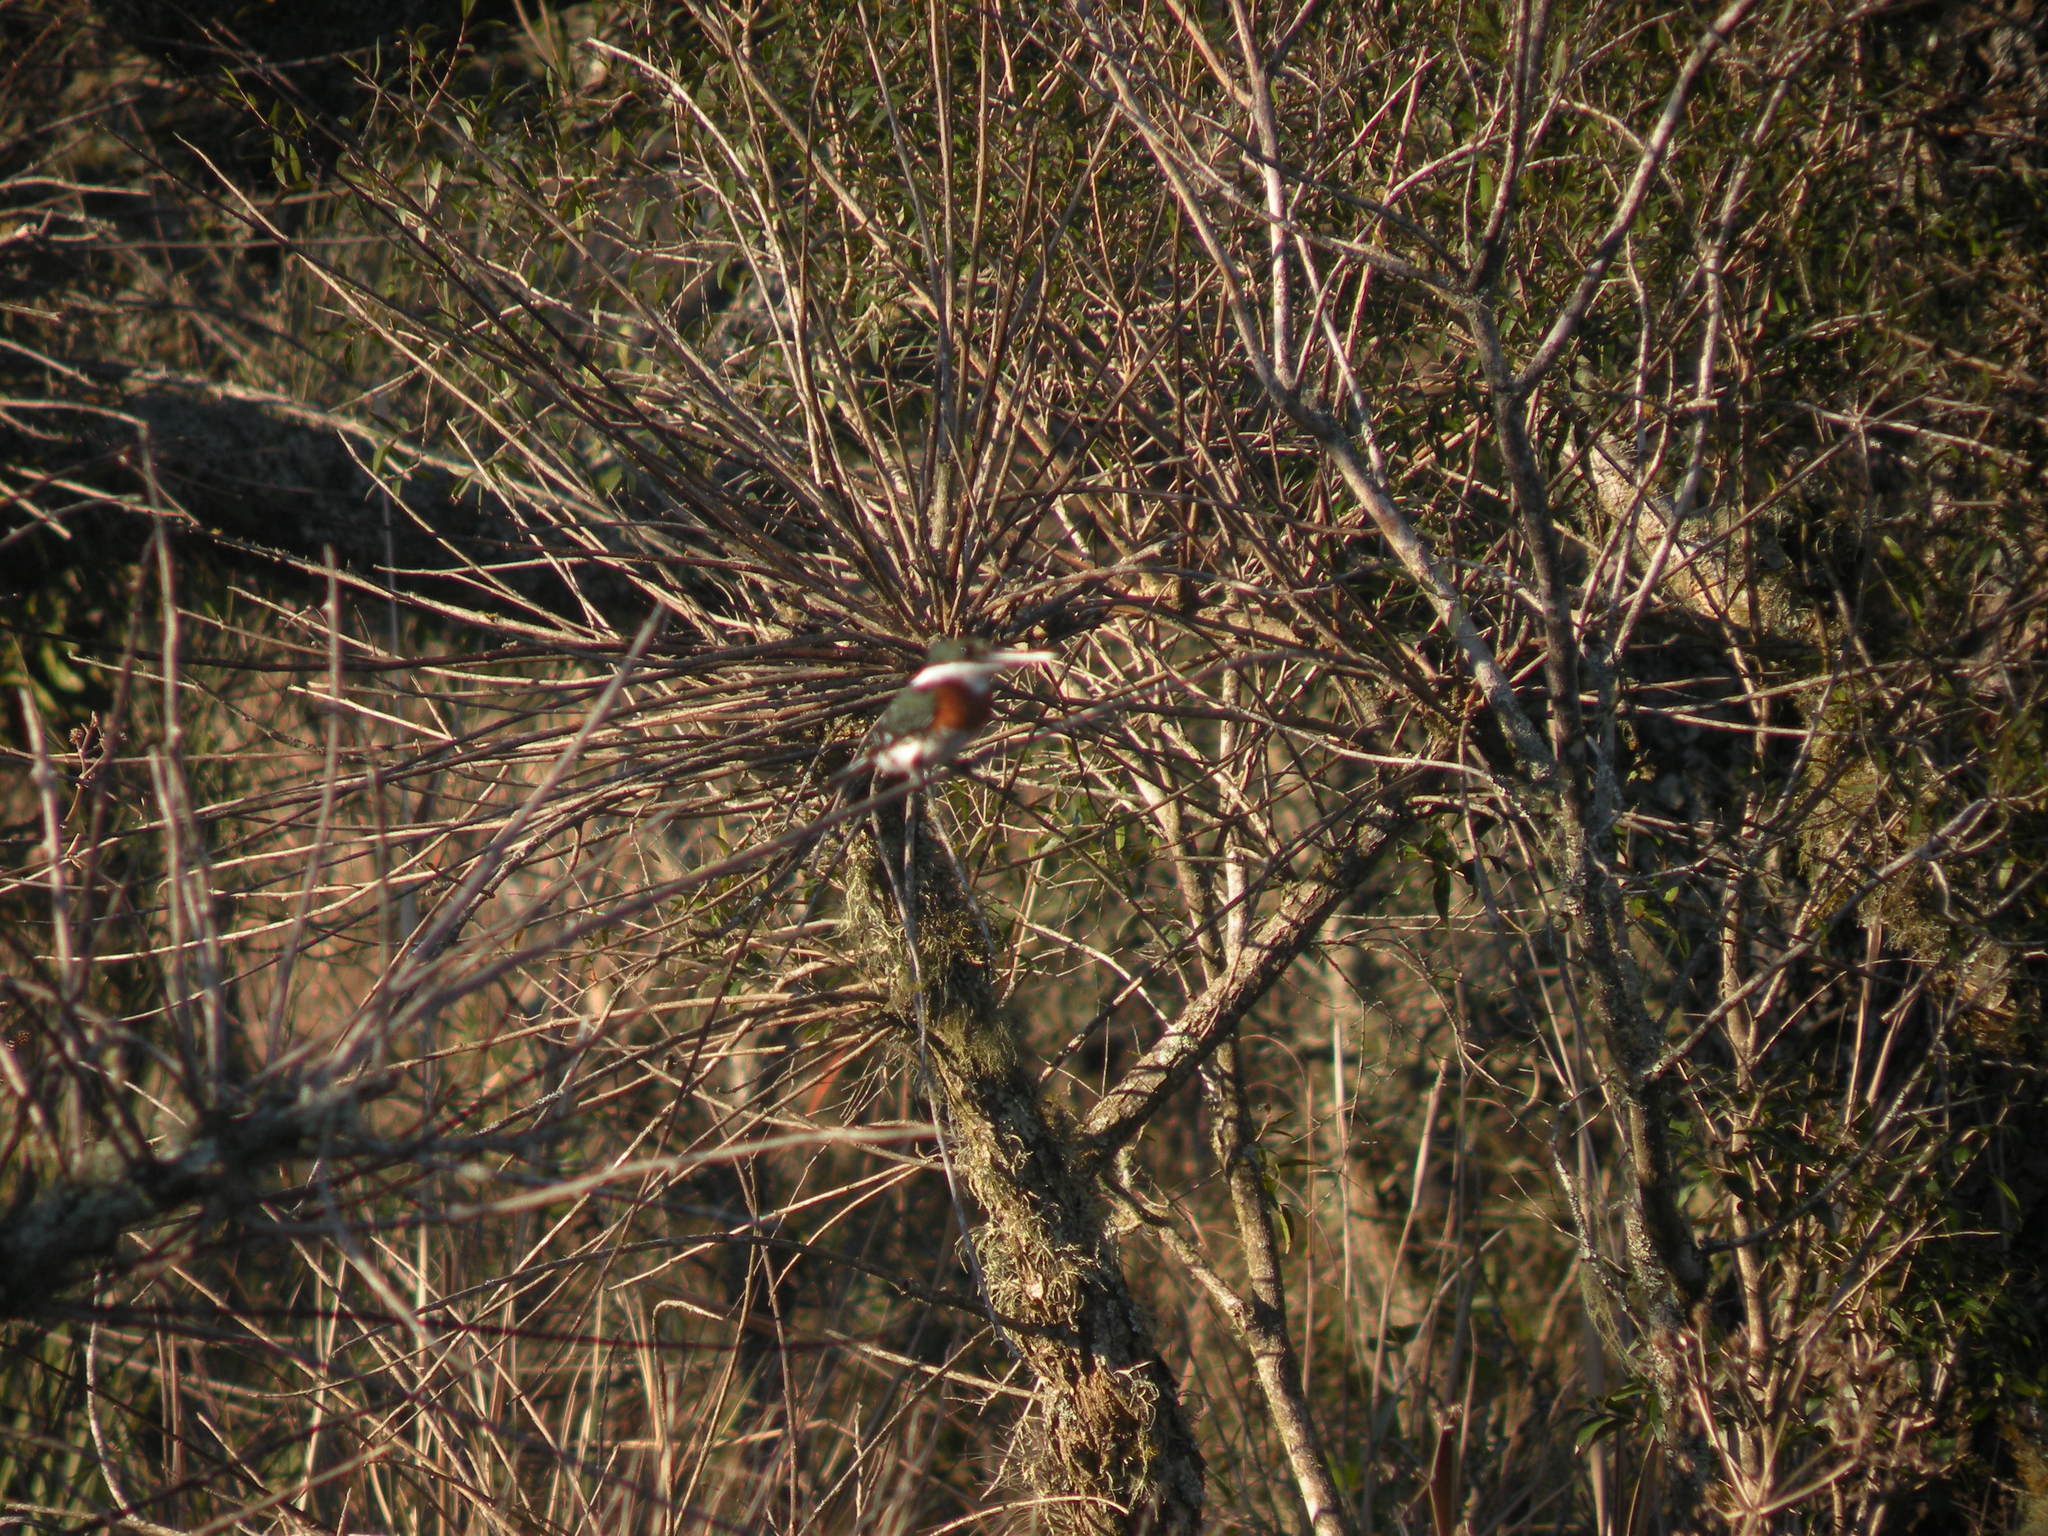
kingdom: Animalia
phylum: Chordata
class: Aves
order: Coraciiformes
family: Alcedinidae
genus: Chloroceryle
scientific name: Chloroceryle americana
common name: Green kingfisher
